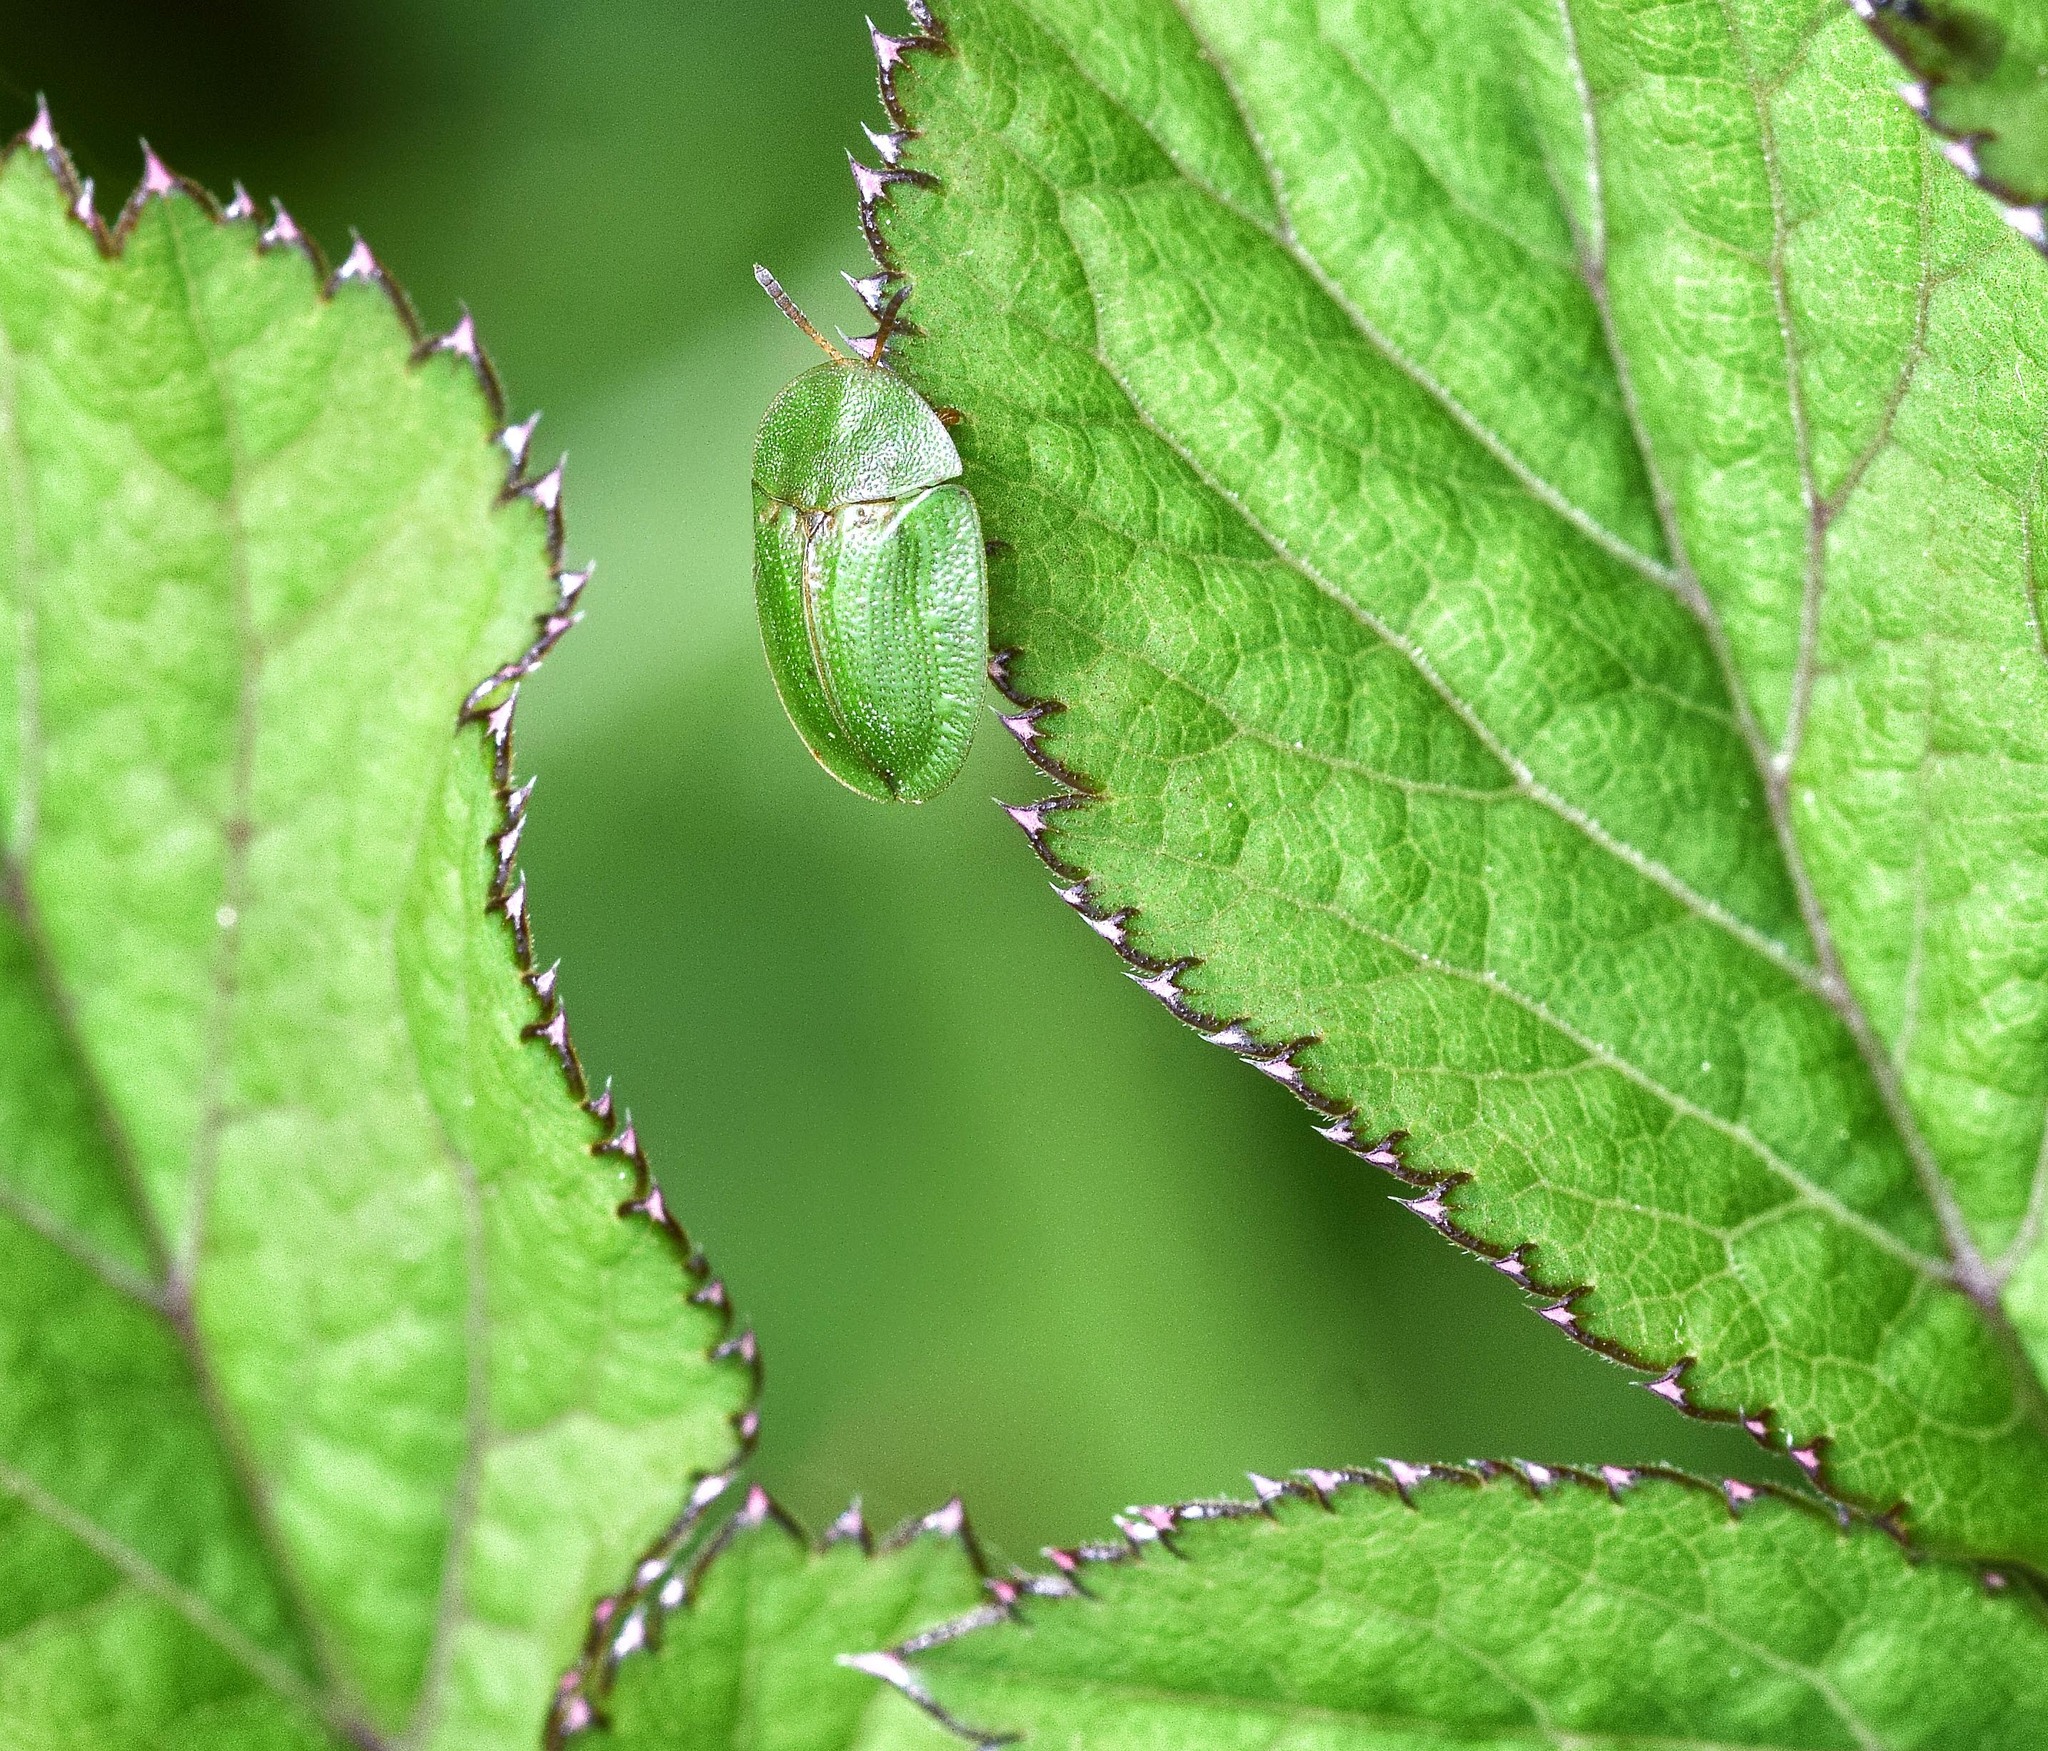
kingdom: Animalia
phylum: Arthropoda
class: Insecta
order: Coleoptera
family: Chrysomelidae
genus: Cassida
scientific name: Cassida rubiginosa
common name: Thistle tortoise beetle
